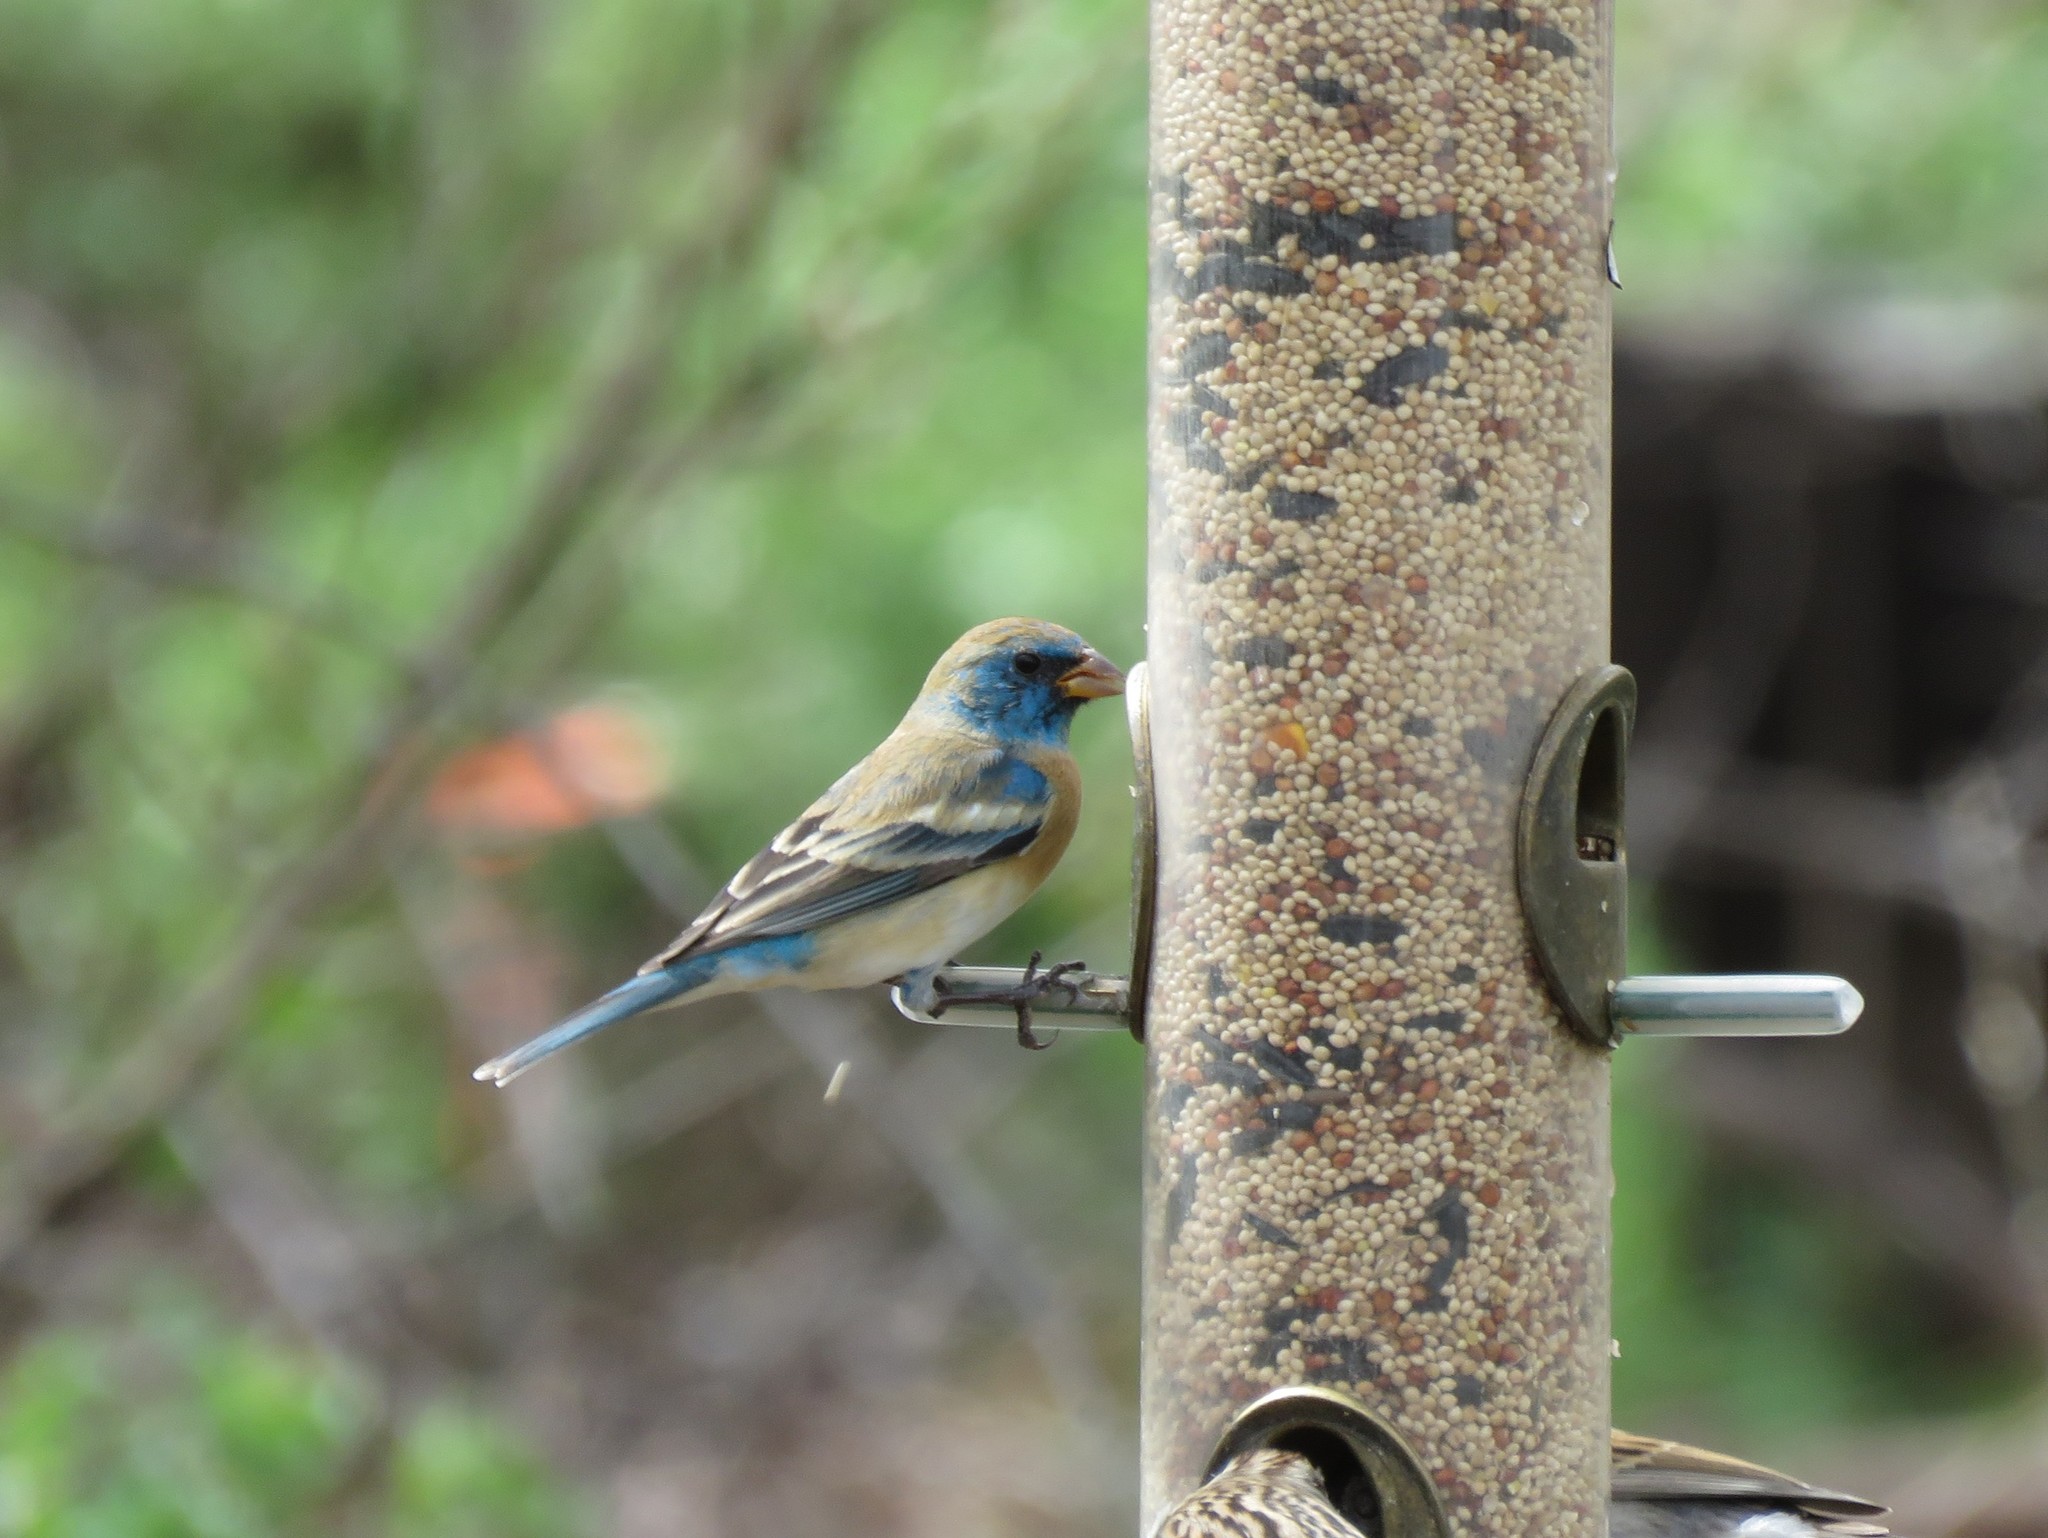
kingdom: Animalia
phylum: Chordata
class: Aves
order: Passeriformes
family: Cardinalidae
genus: Passerina
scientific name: Passerina amoena
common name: Lazuli bunting
